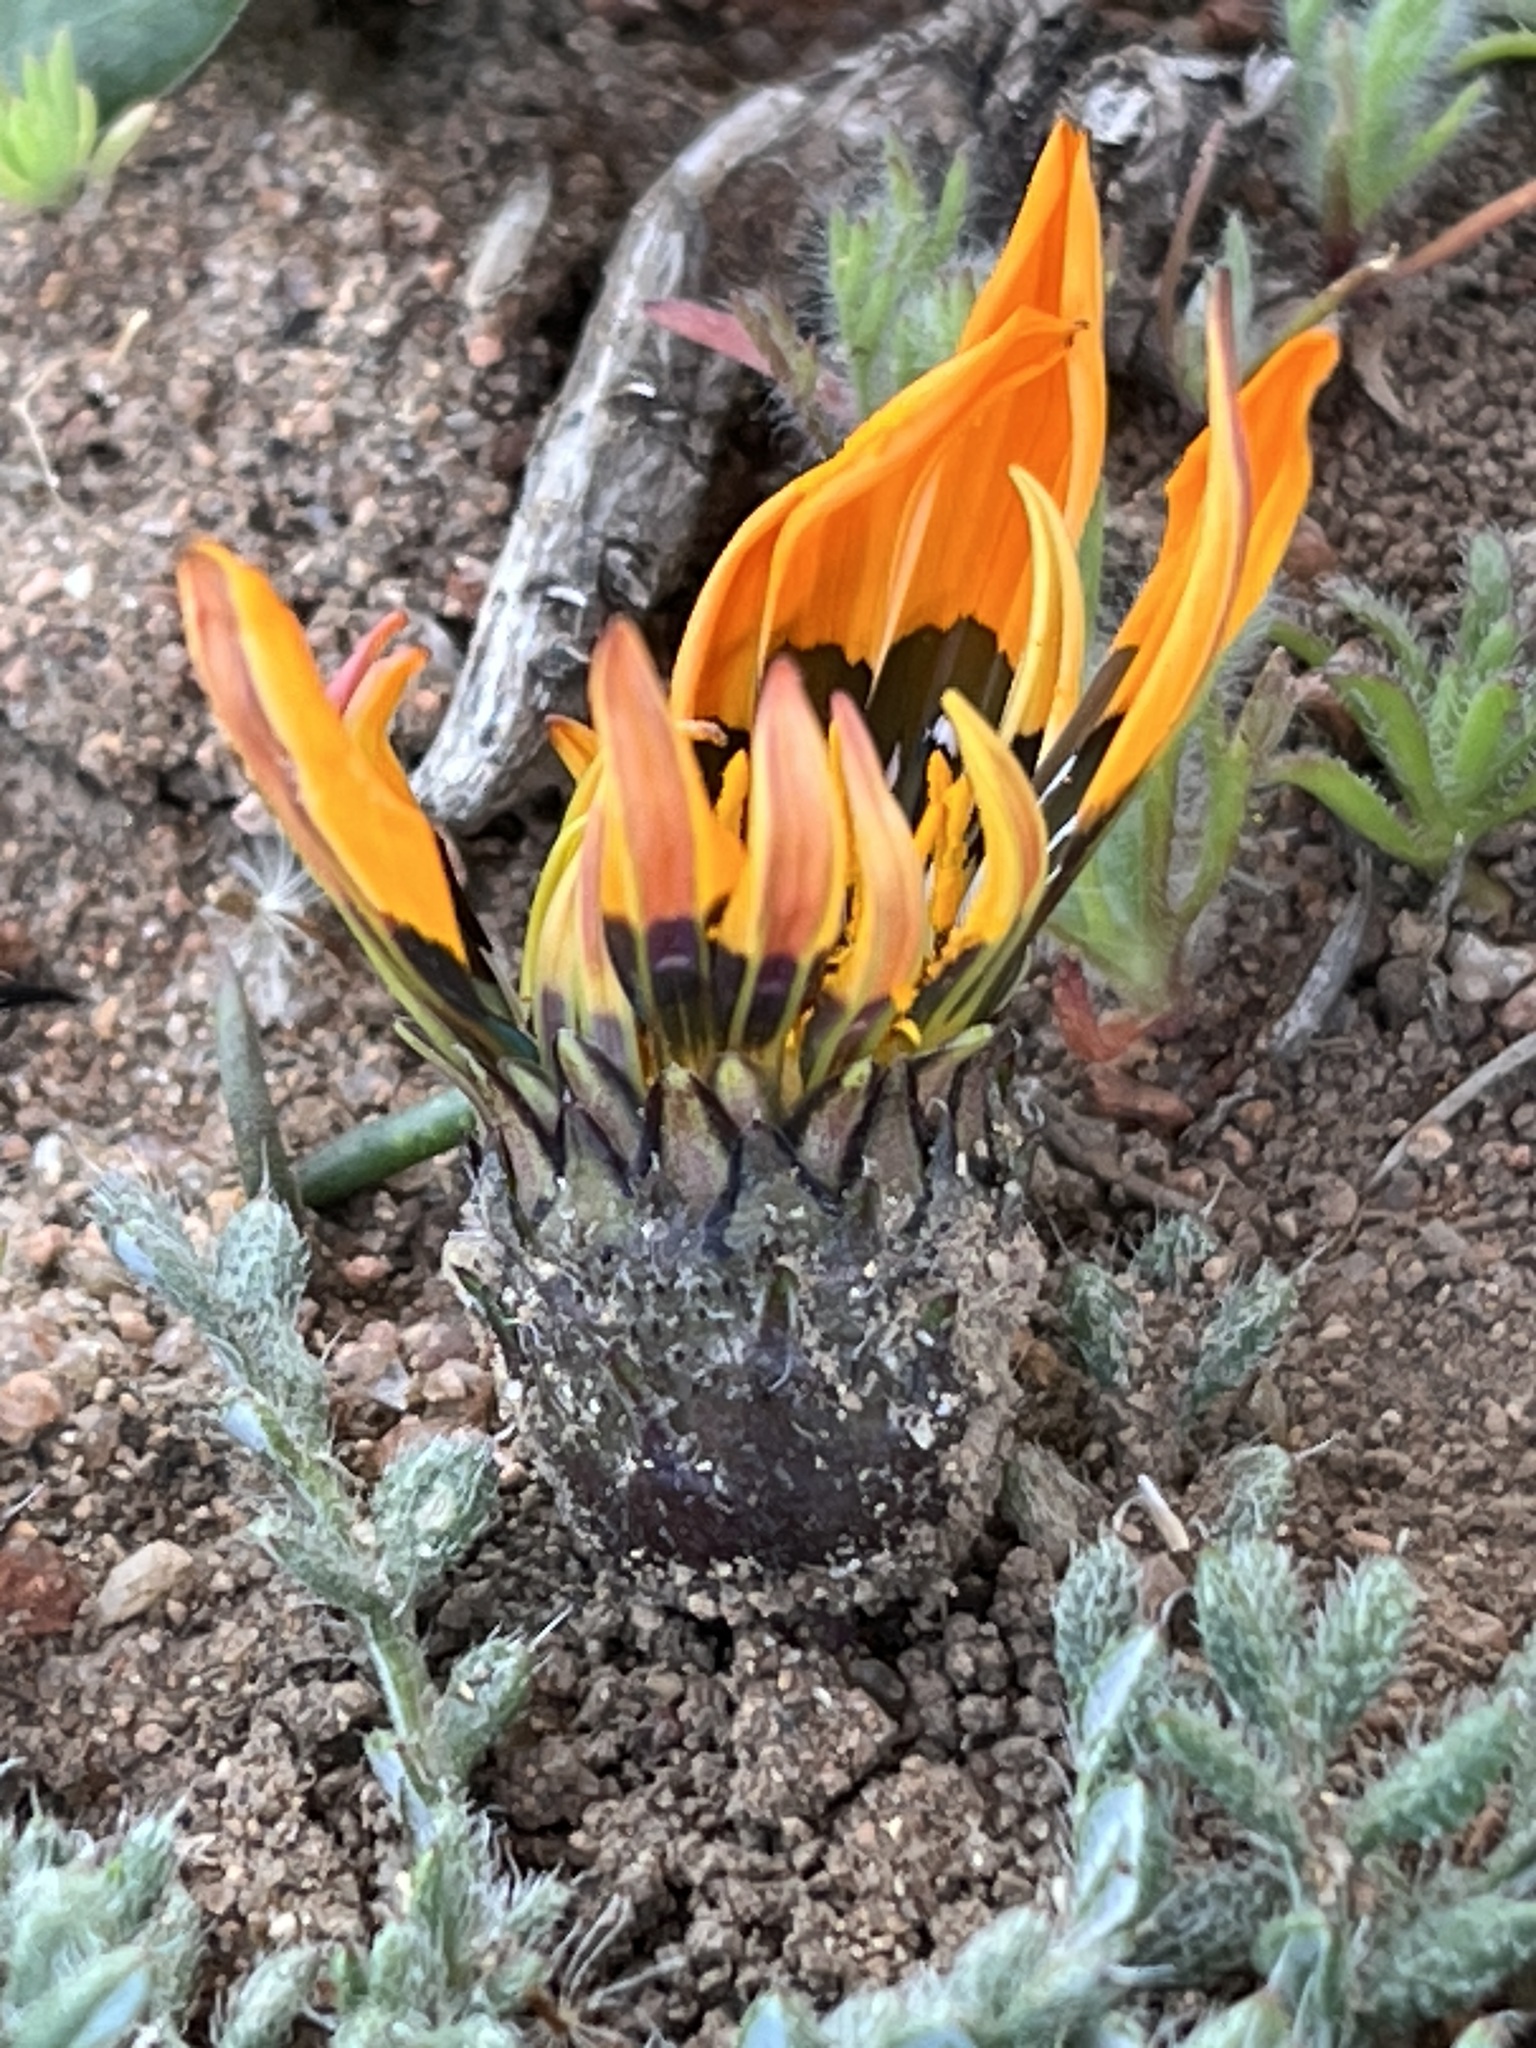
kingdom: Plantae
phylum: Tracheophyta
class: Magnoliopsida
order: Asterales
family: Asteraceae
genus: Gazania
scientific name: Gazania leiopoda
